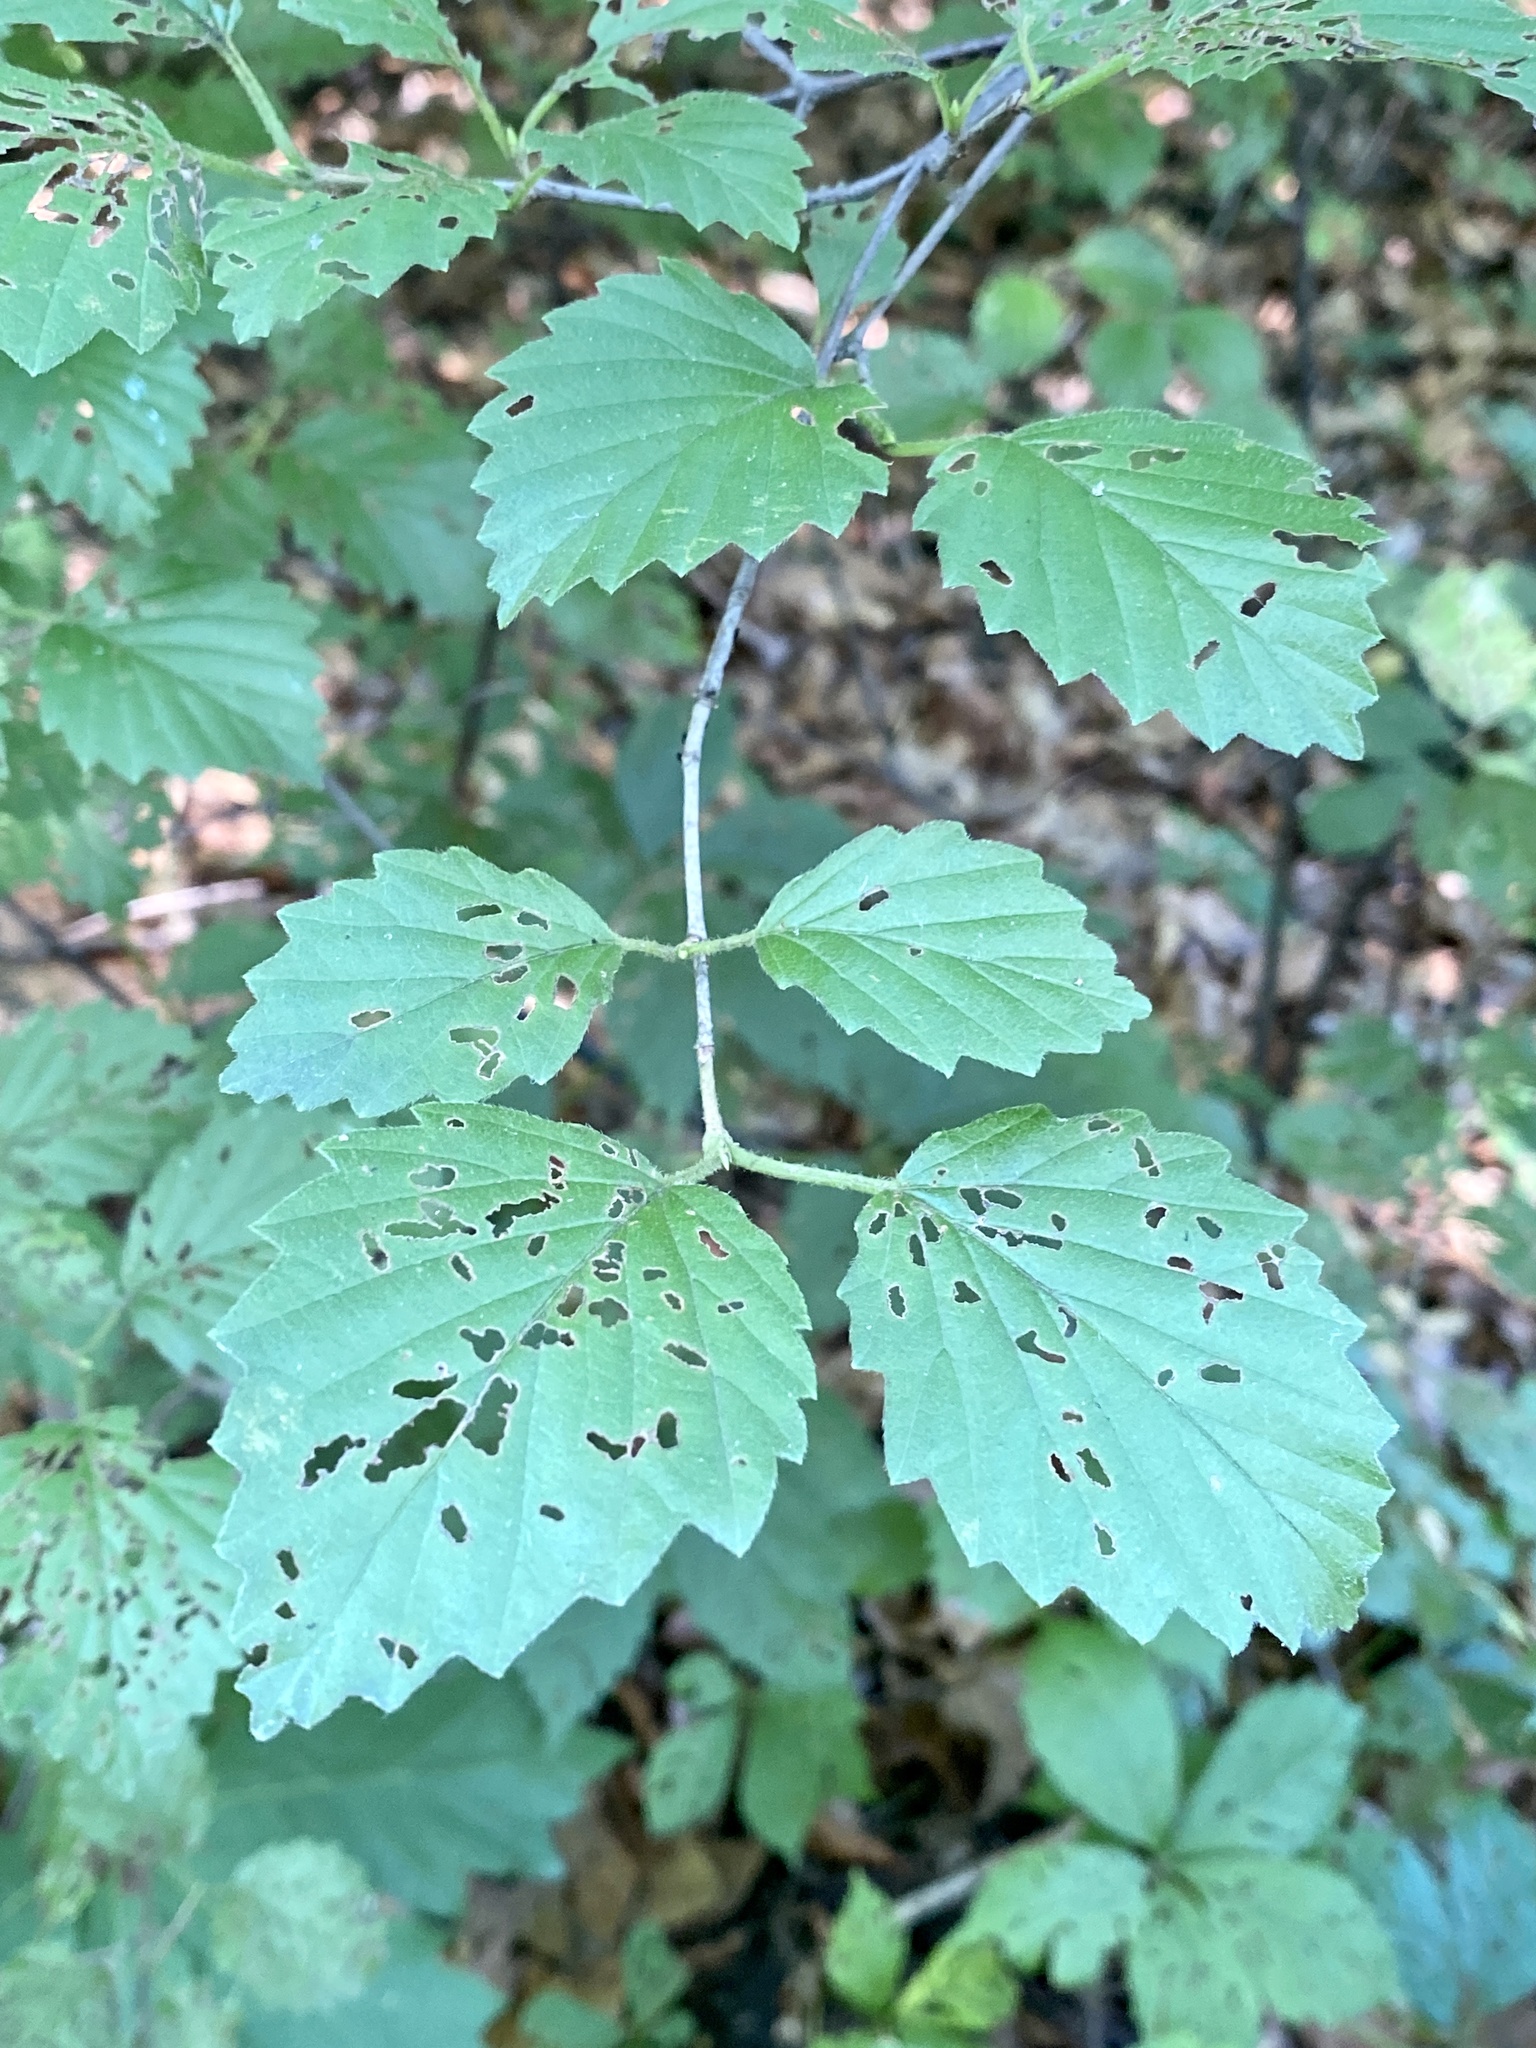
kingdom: Plantae
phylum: Tracheophyta
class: Magnoliopsida
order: Dipsacales
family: Viburnaceae
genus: Viburnum
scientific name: Viburnum dentatum
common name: Arrow-wood
